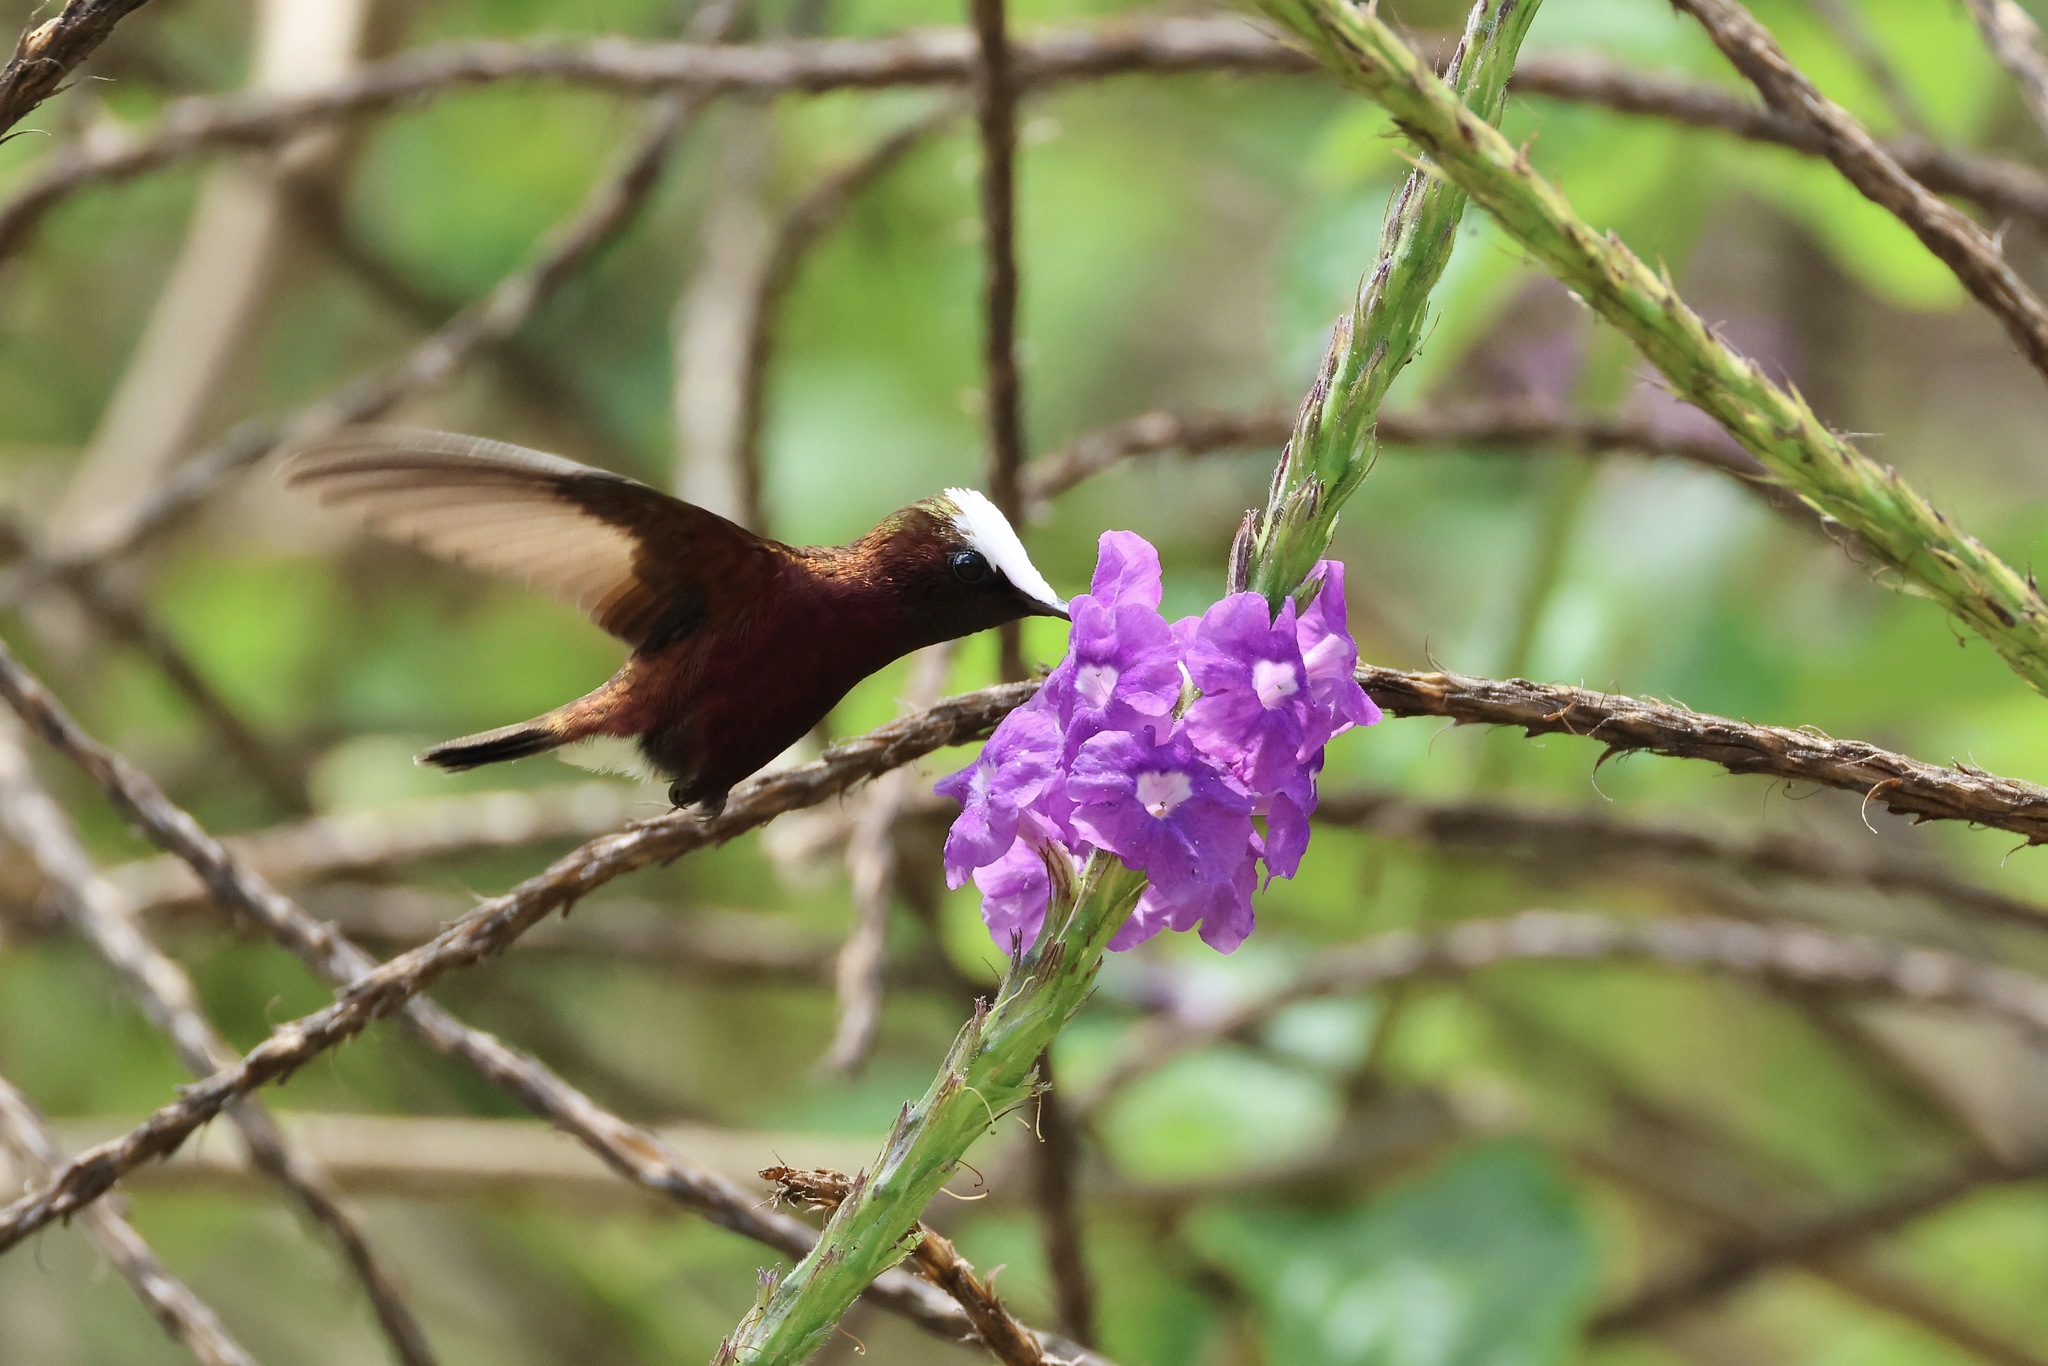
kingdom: Animalia
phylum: Chordata
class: Aves
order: Apodiformes
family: Trochilidae
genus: Microchera
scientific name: Microchera albocoronata
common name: Snowcap
